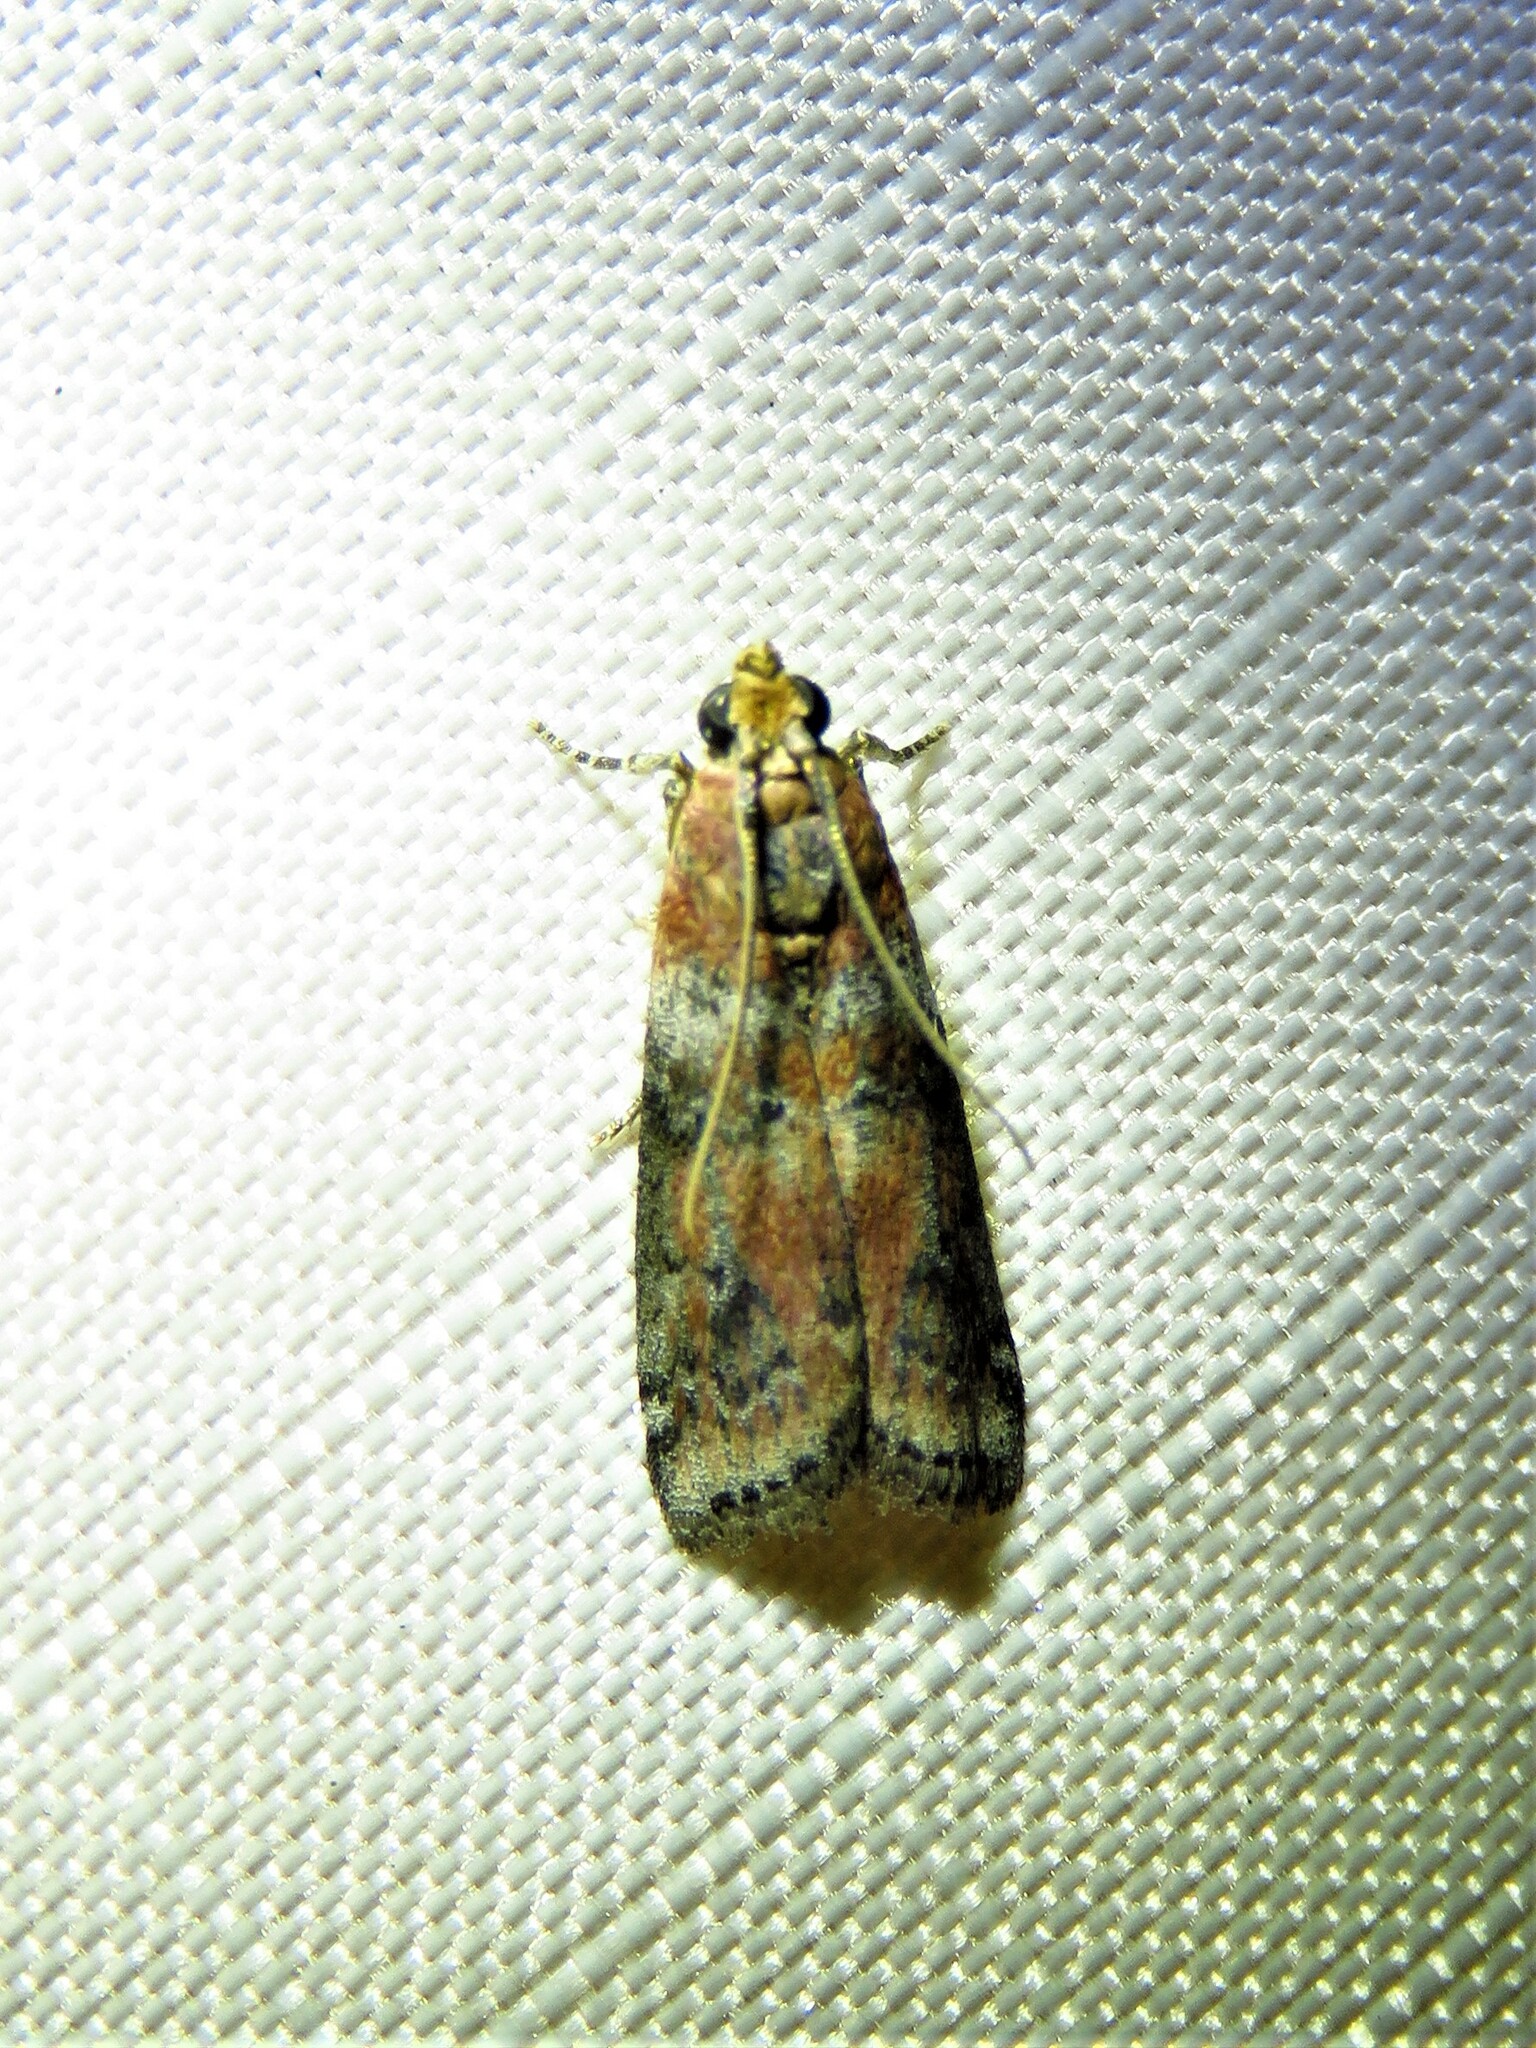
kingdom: Animalia
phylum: Arthropoda
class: Insecta
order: Lepidoptera
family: Pyralidae
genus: Sciota
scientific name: Sciota
